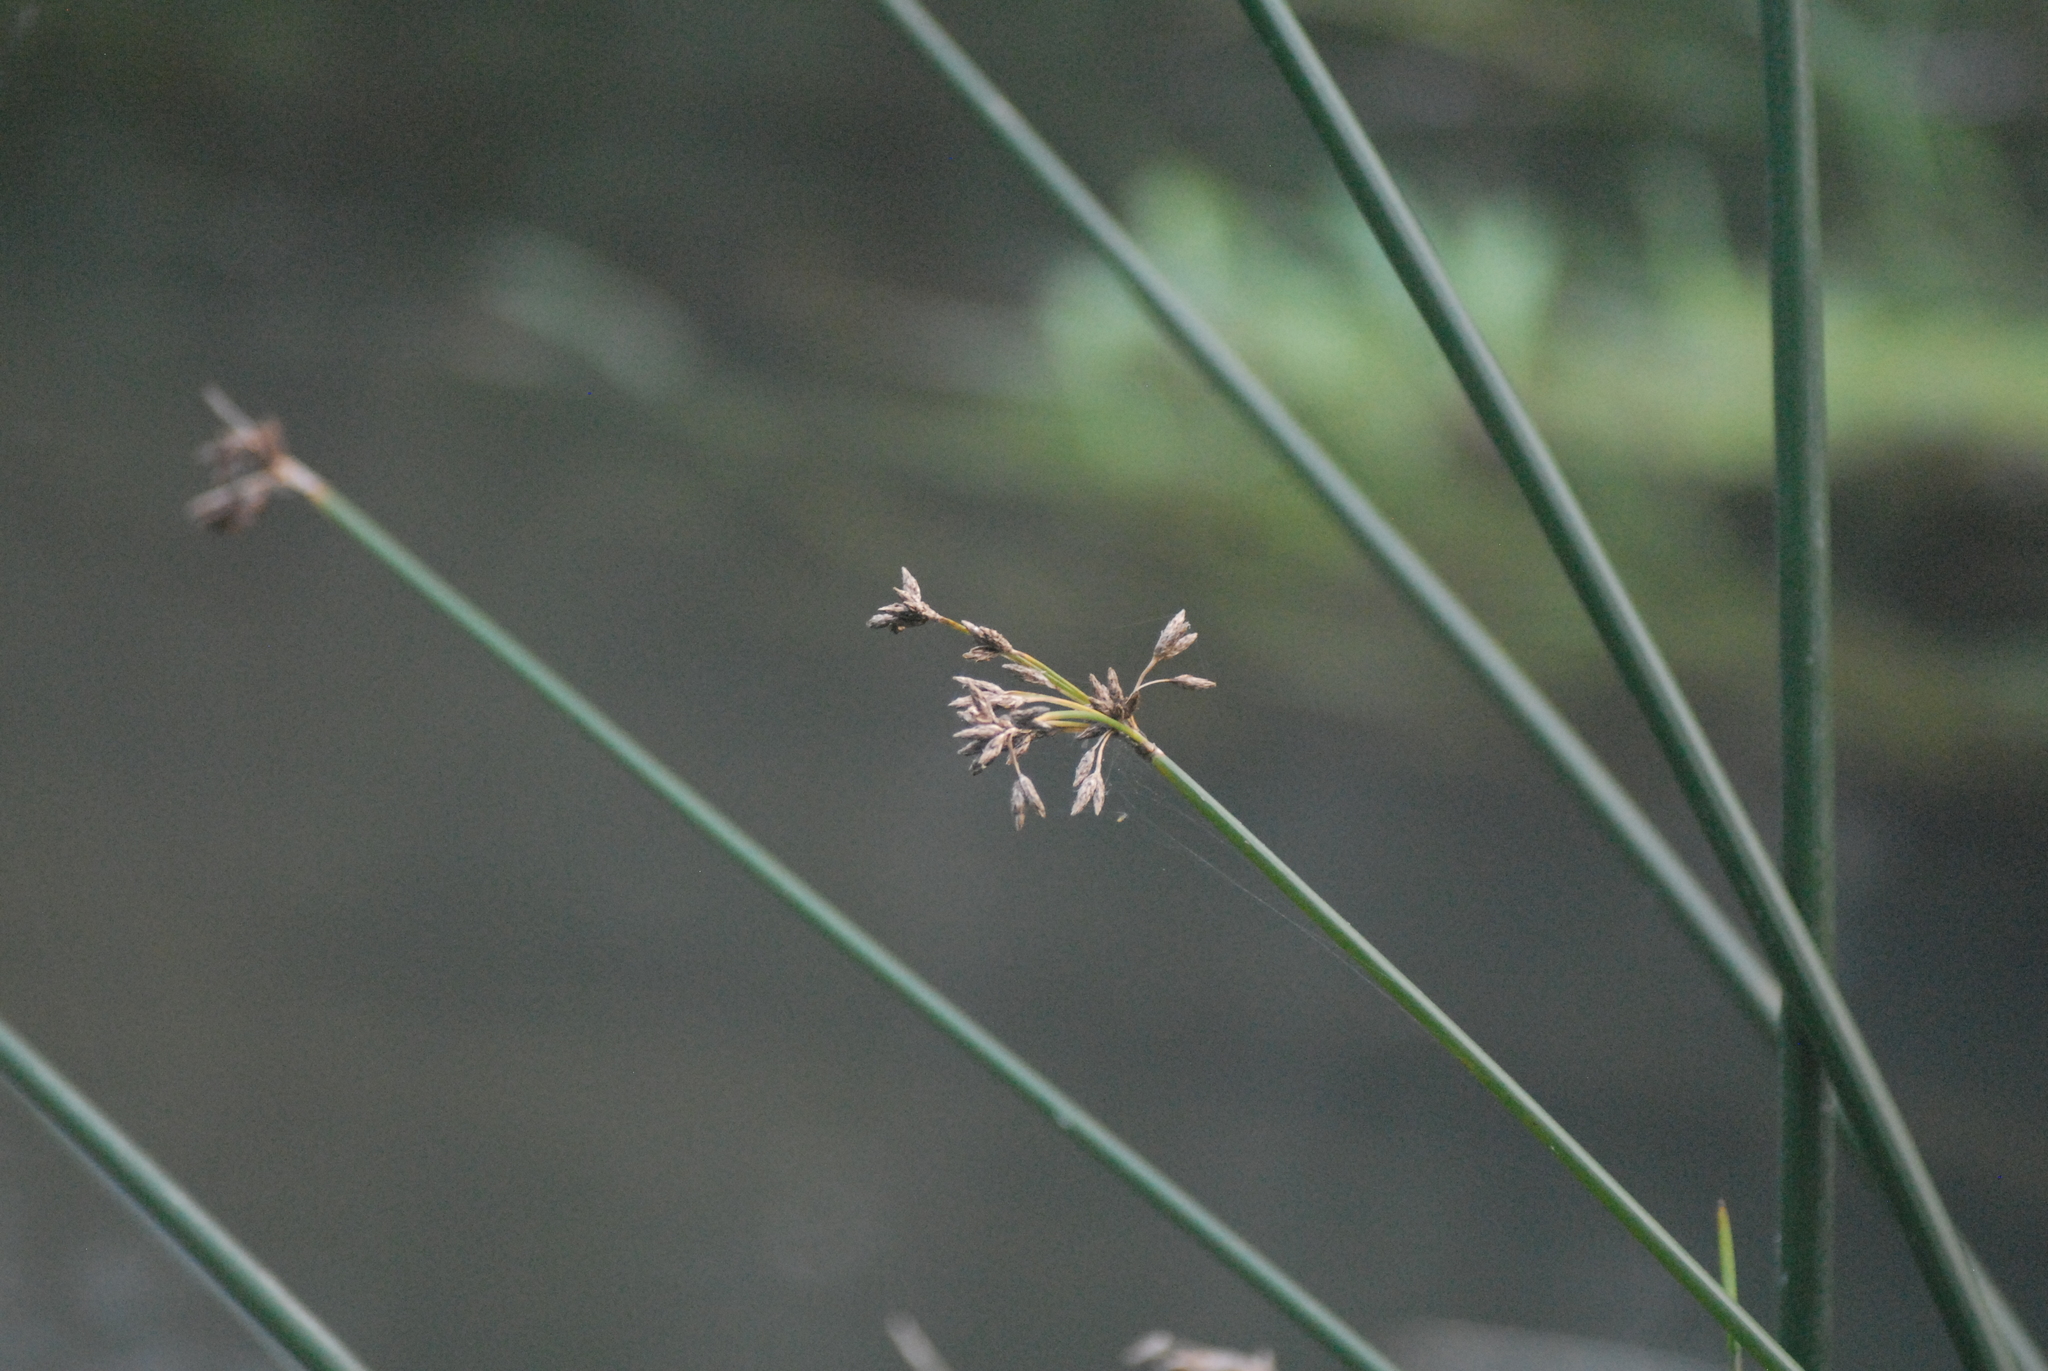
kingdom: Plantae
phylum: Tracheophyta
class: Liliopsida
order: Poales
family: Cyperaceae
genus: Schoenoplectus
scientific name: Schoenoplectus lacustris
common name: Common club-rush
